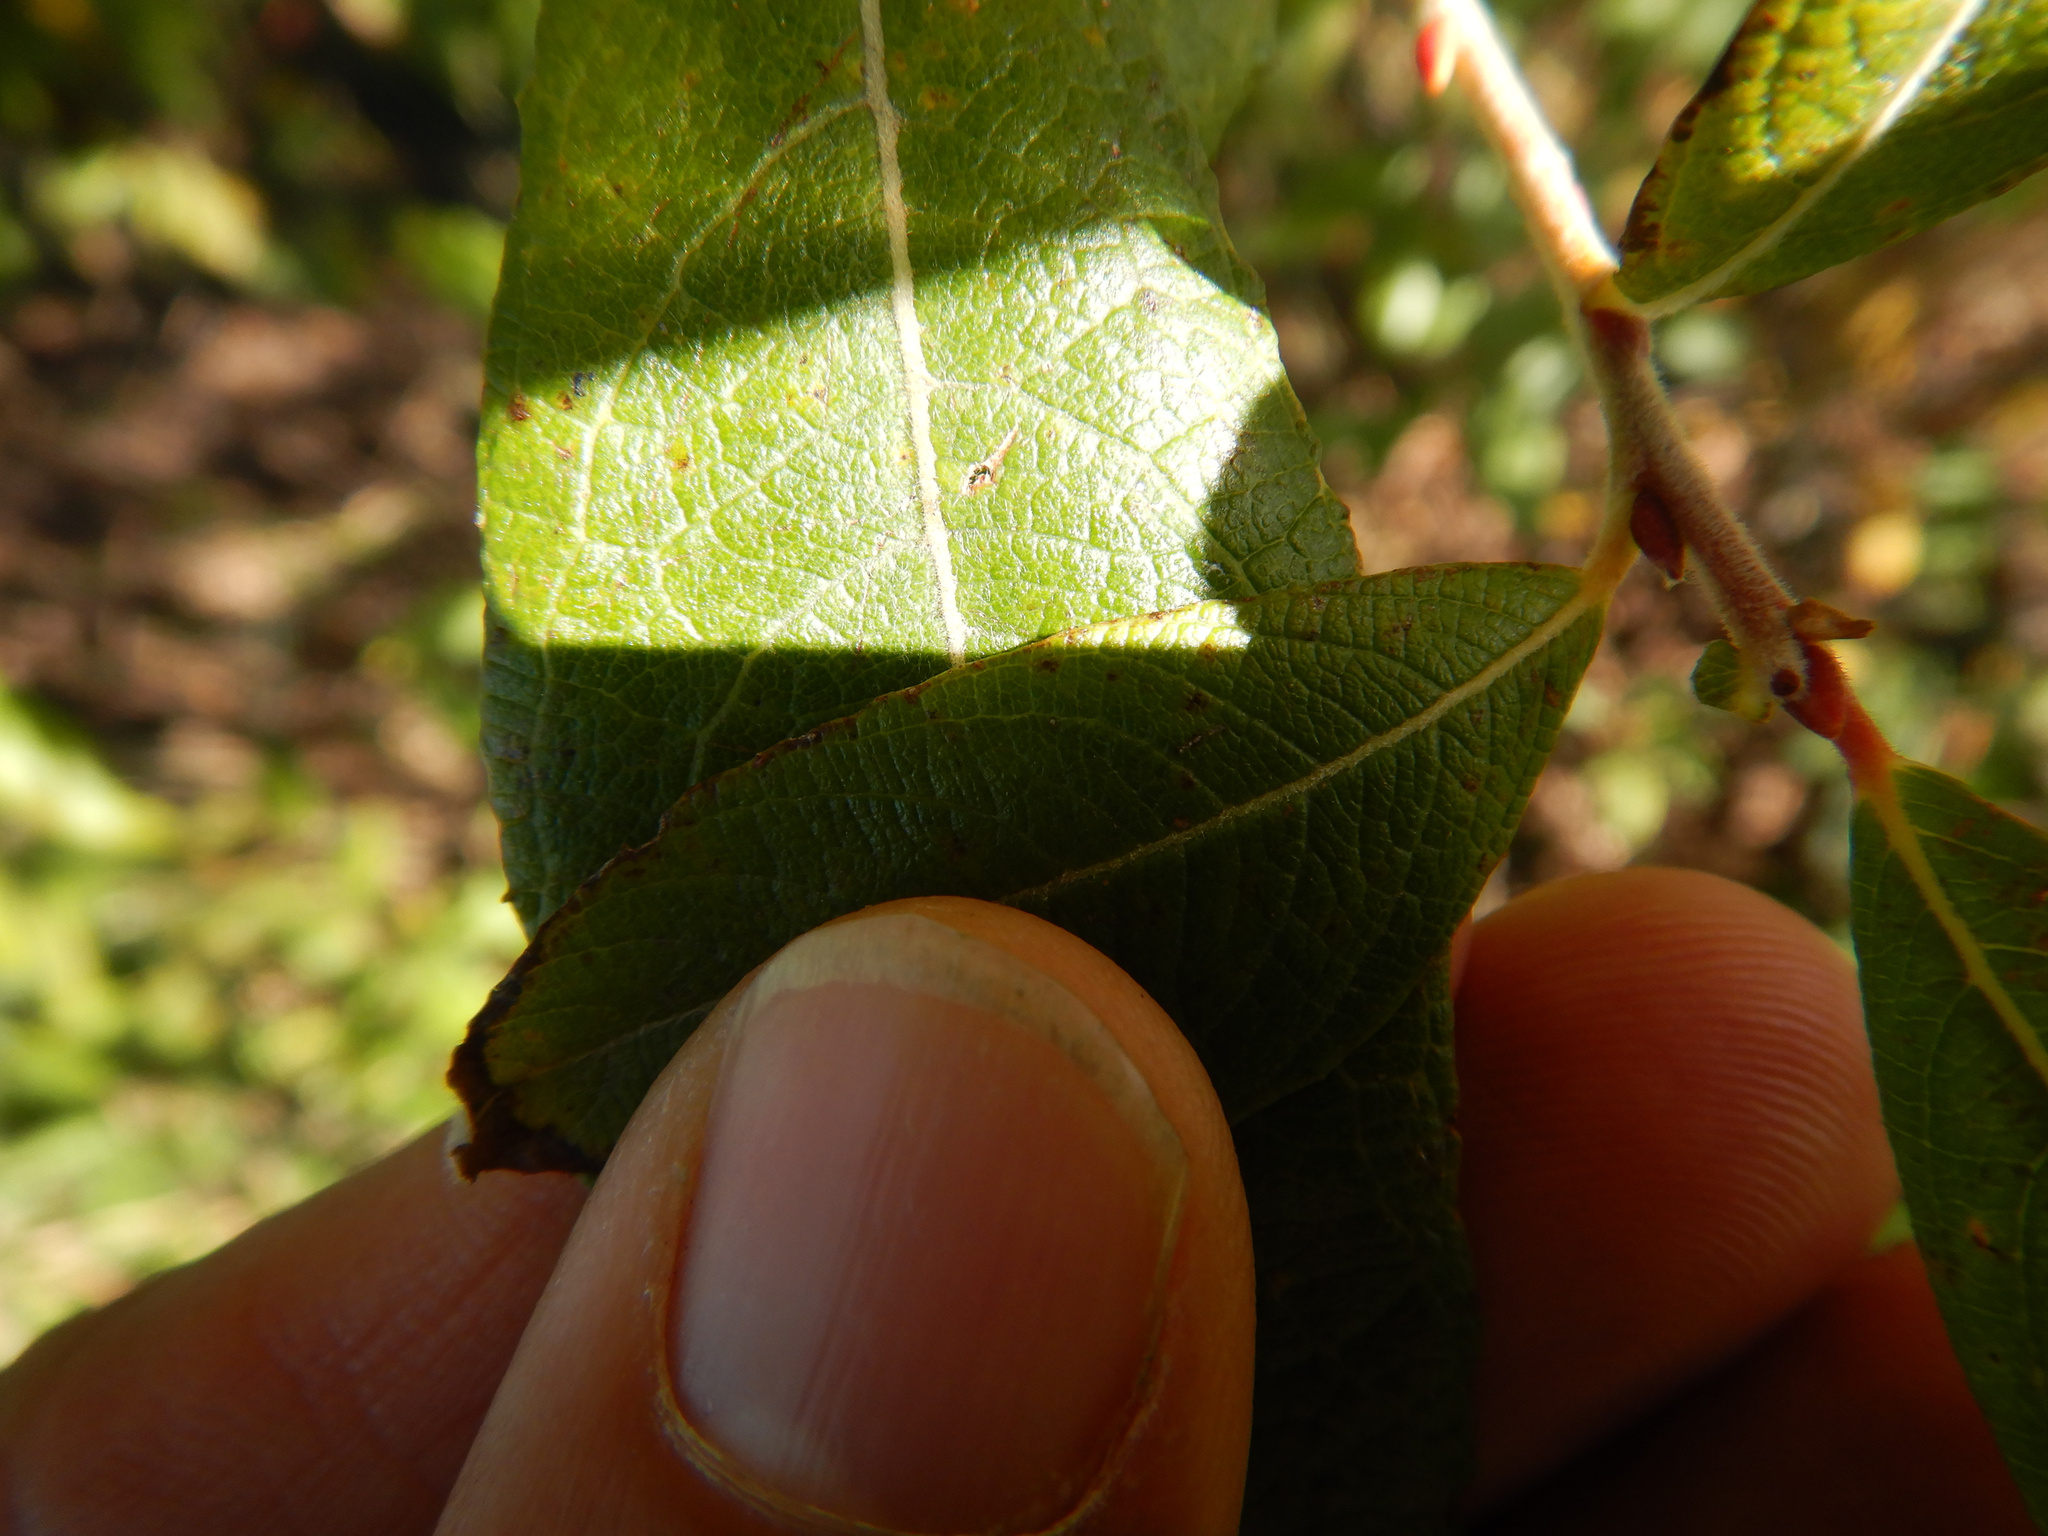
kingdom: Plantae
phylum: Tracheophyta
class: Magnoliopsida
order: Malpighiales
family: Salicaceae
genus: Salix
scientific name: Salix cinerea
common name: Common sallow
